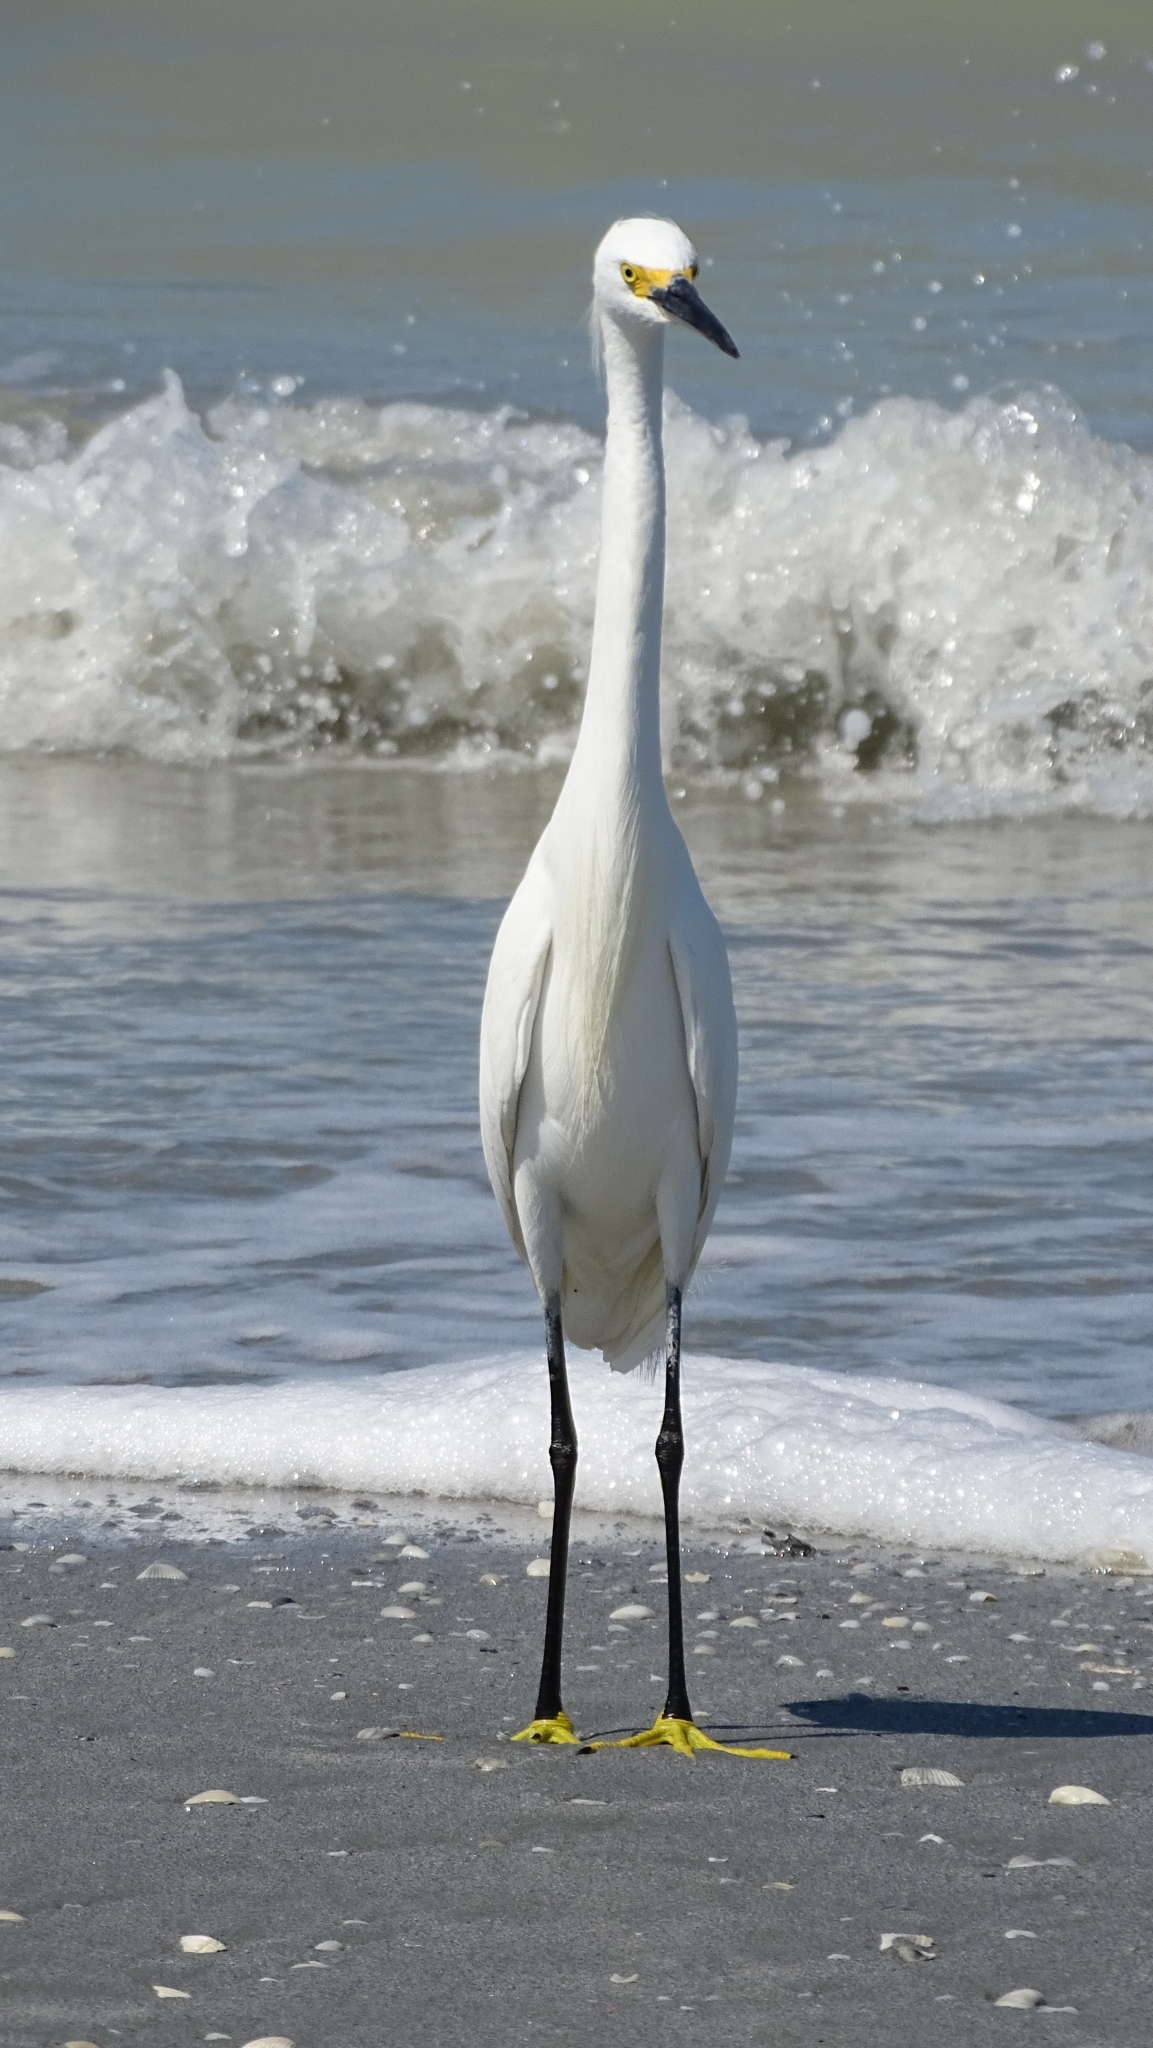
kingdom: Animalia
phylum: Chordata
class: Aves
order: Pelecaniformes
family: Ardeidae
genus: Egretta
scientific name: Egretta thula
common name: Snowy egret
